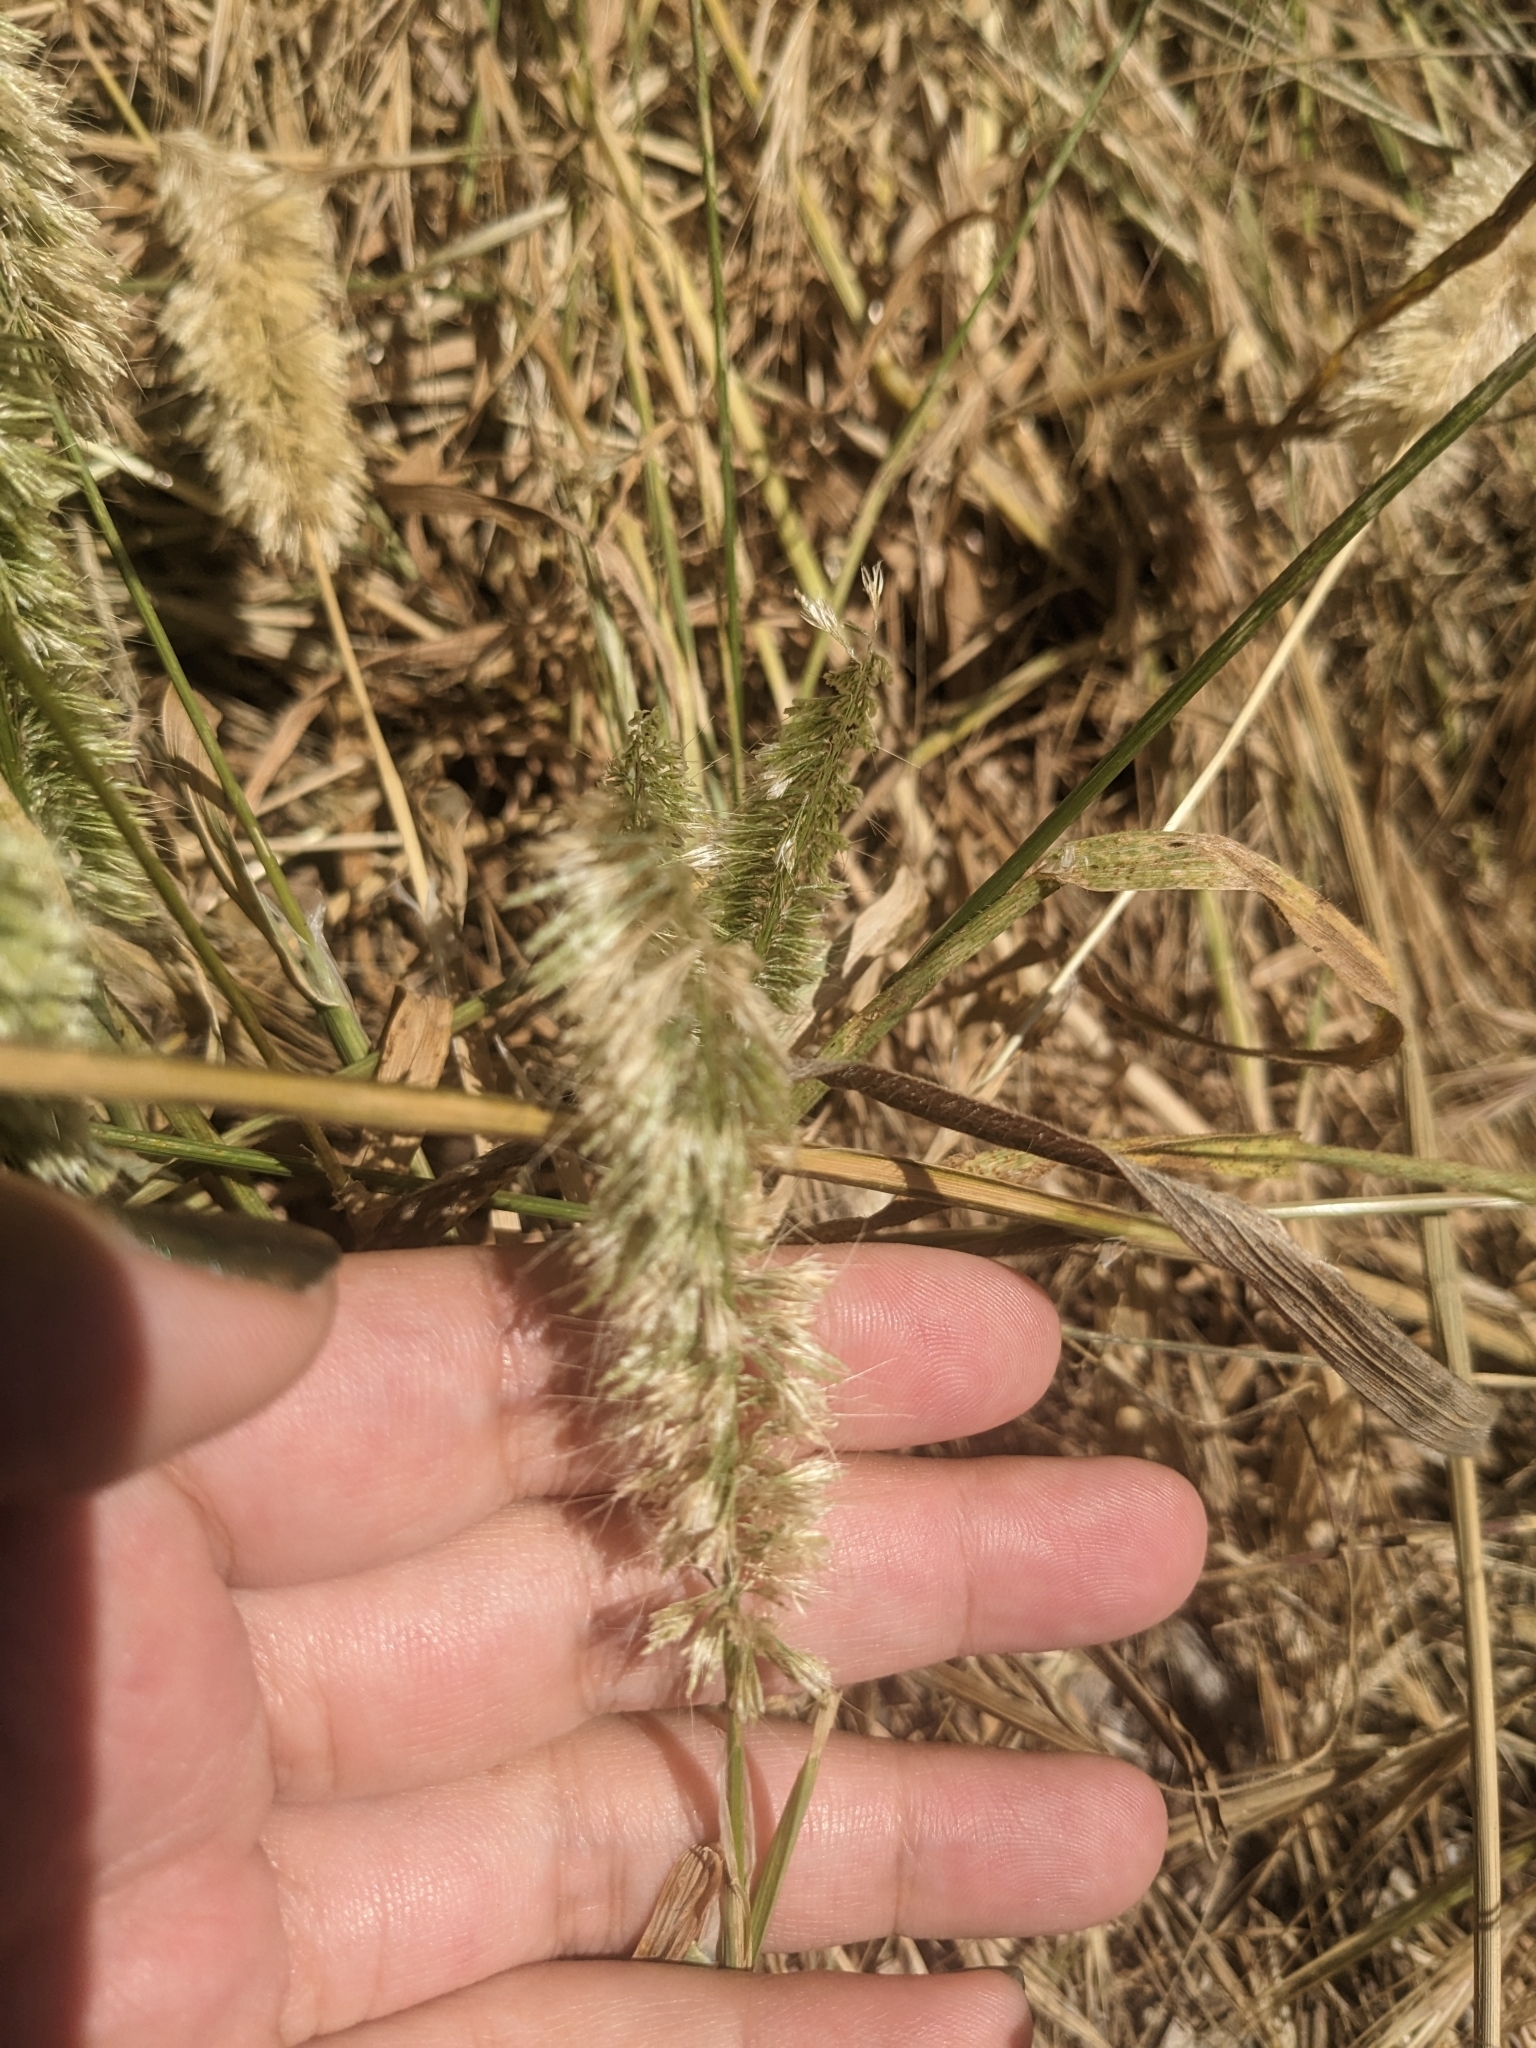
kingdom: Plantae
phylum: Tracheophyta
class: Liliopsida
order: Poales
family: Poaceae
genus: Lamarckia
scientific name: Lamarckia aurea
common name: Golden dog's-tail
